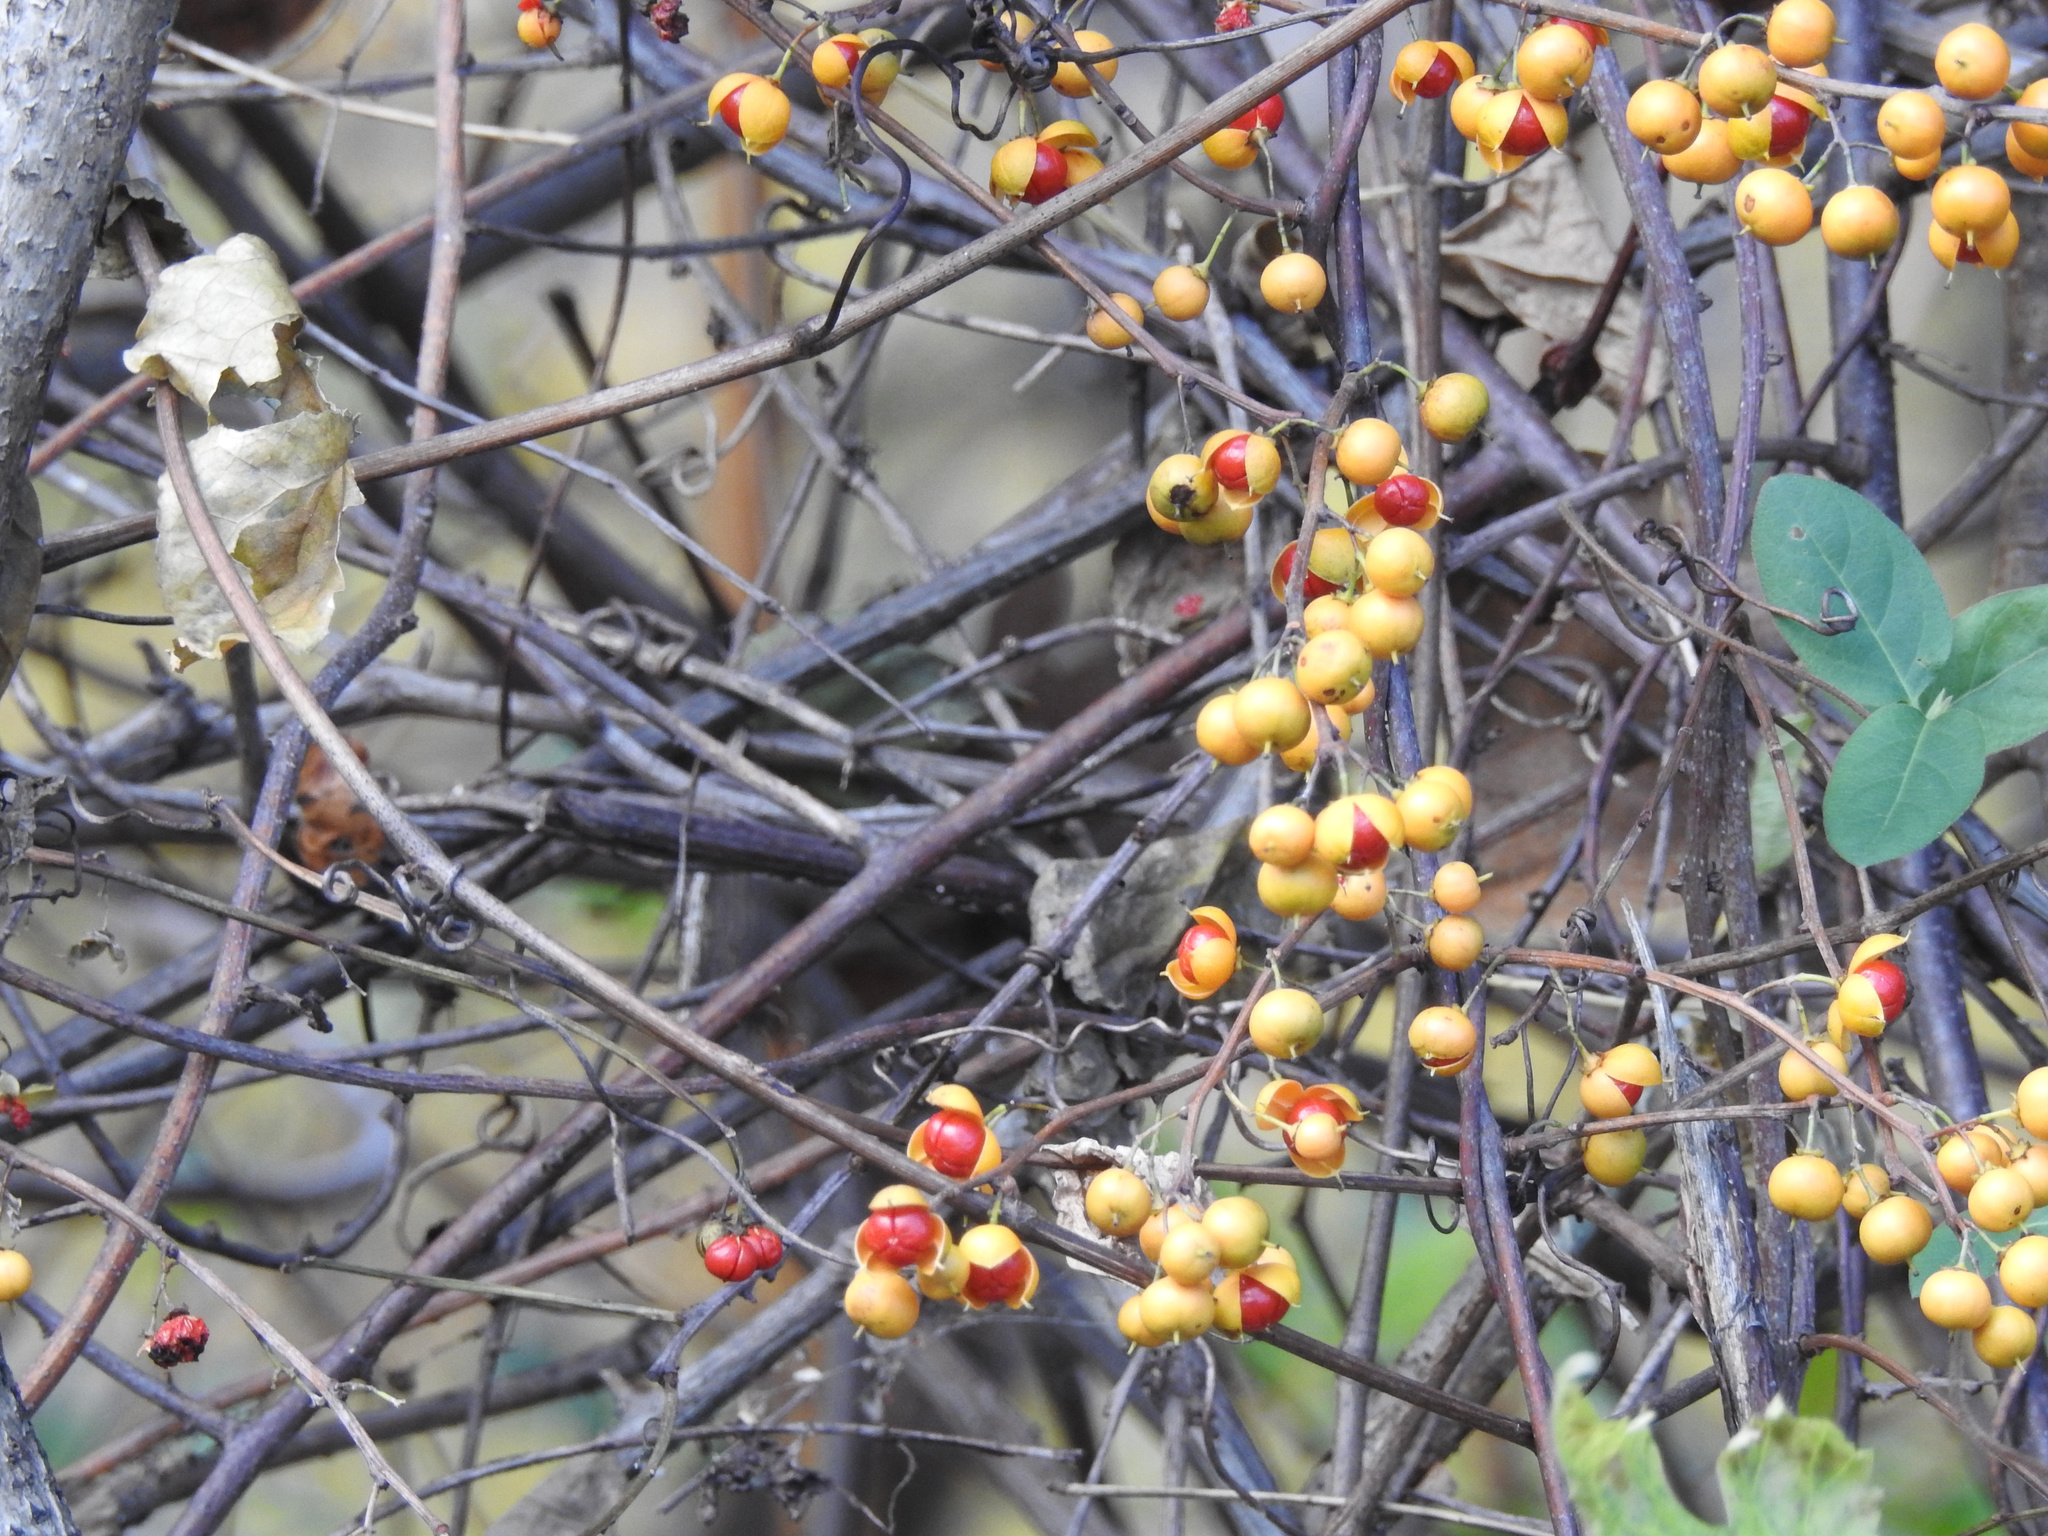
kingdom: Plantae
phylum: Tracheophyta
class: Magnoliopsida
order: Celastrales
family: Celastraceae
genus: Celastrus
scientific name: Celastrus orbiculatus
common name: Oriental bittersweet
